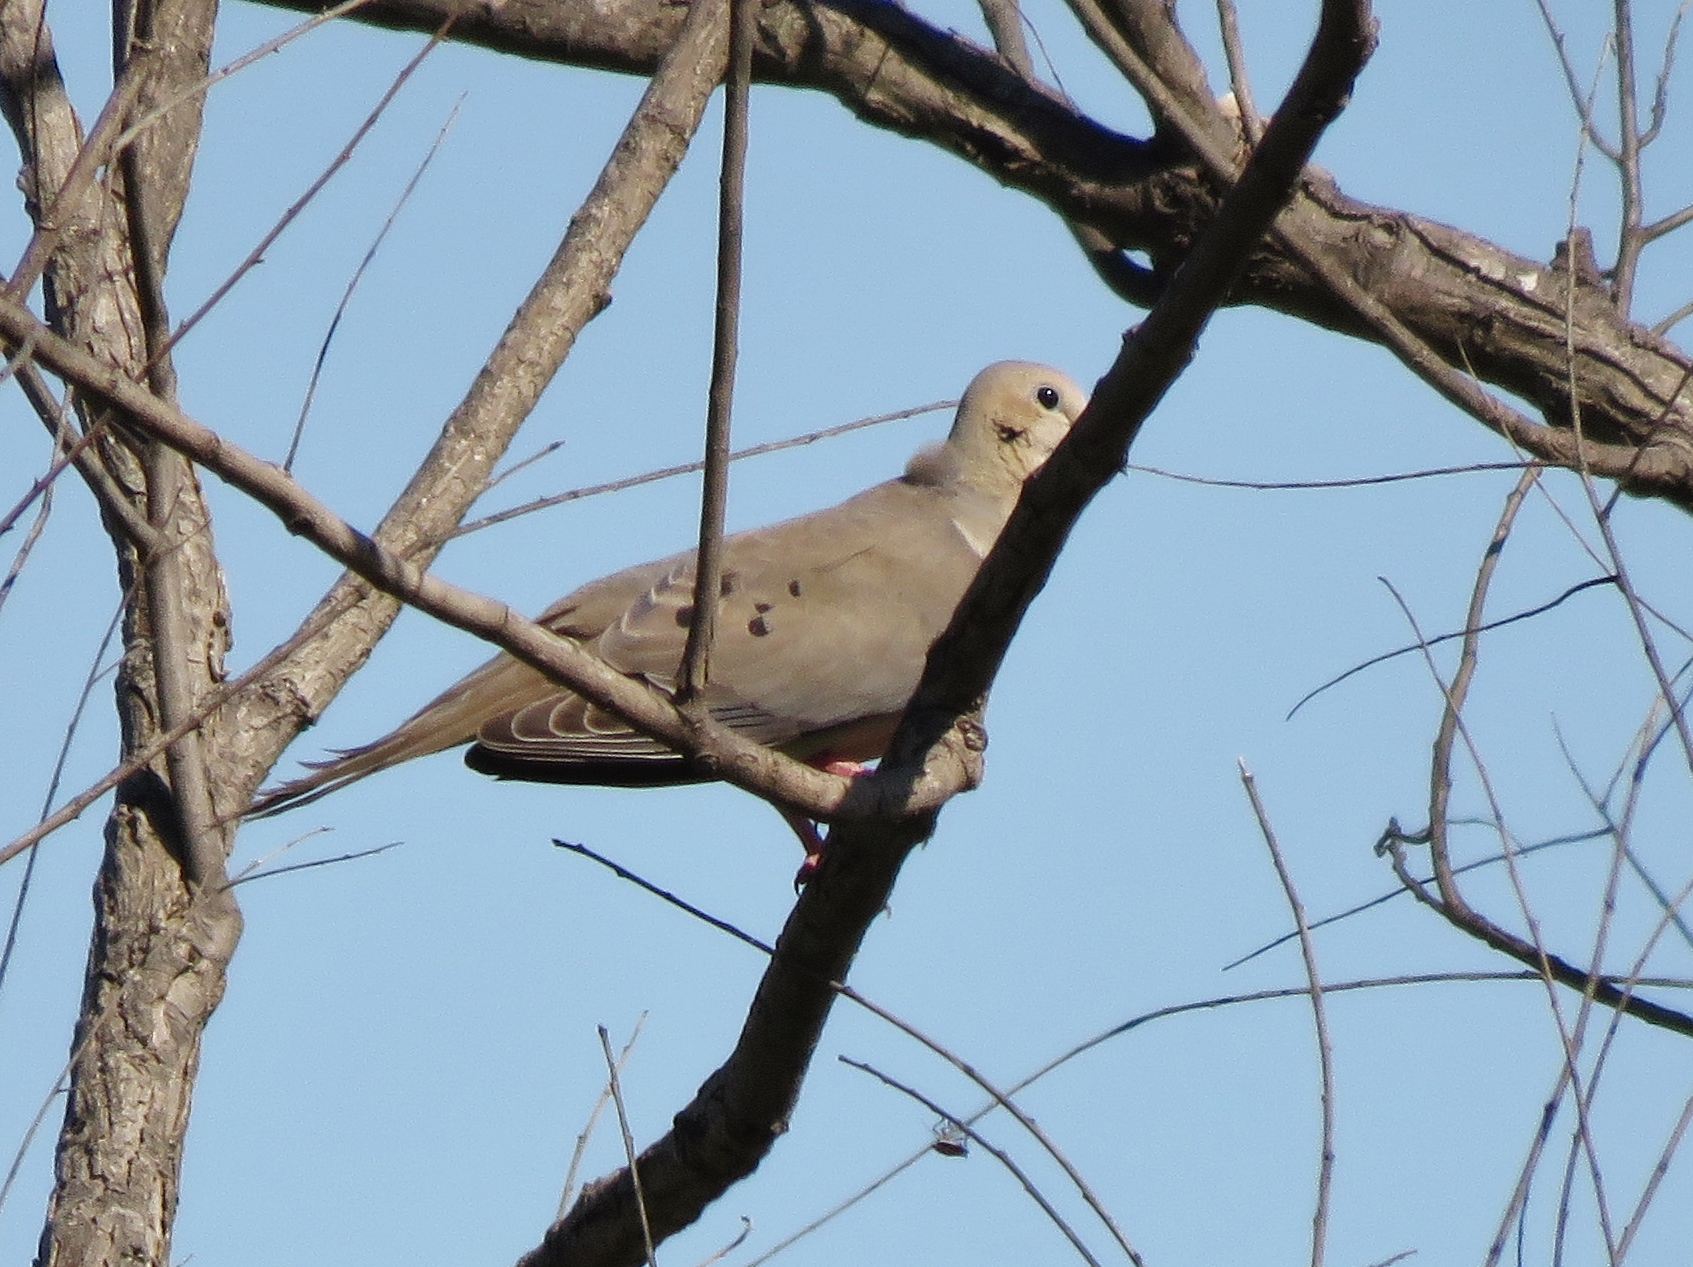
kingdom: Animalia
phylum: Chordata
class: Aves
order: Columbiformes
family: Columbidae
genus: Zenaida
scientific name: Zenaida macroura
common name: Mourning dove
